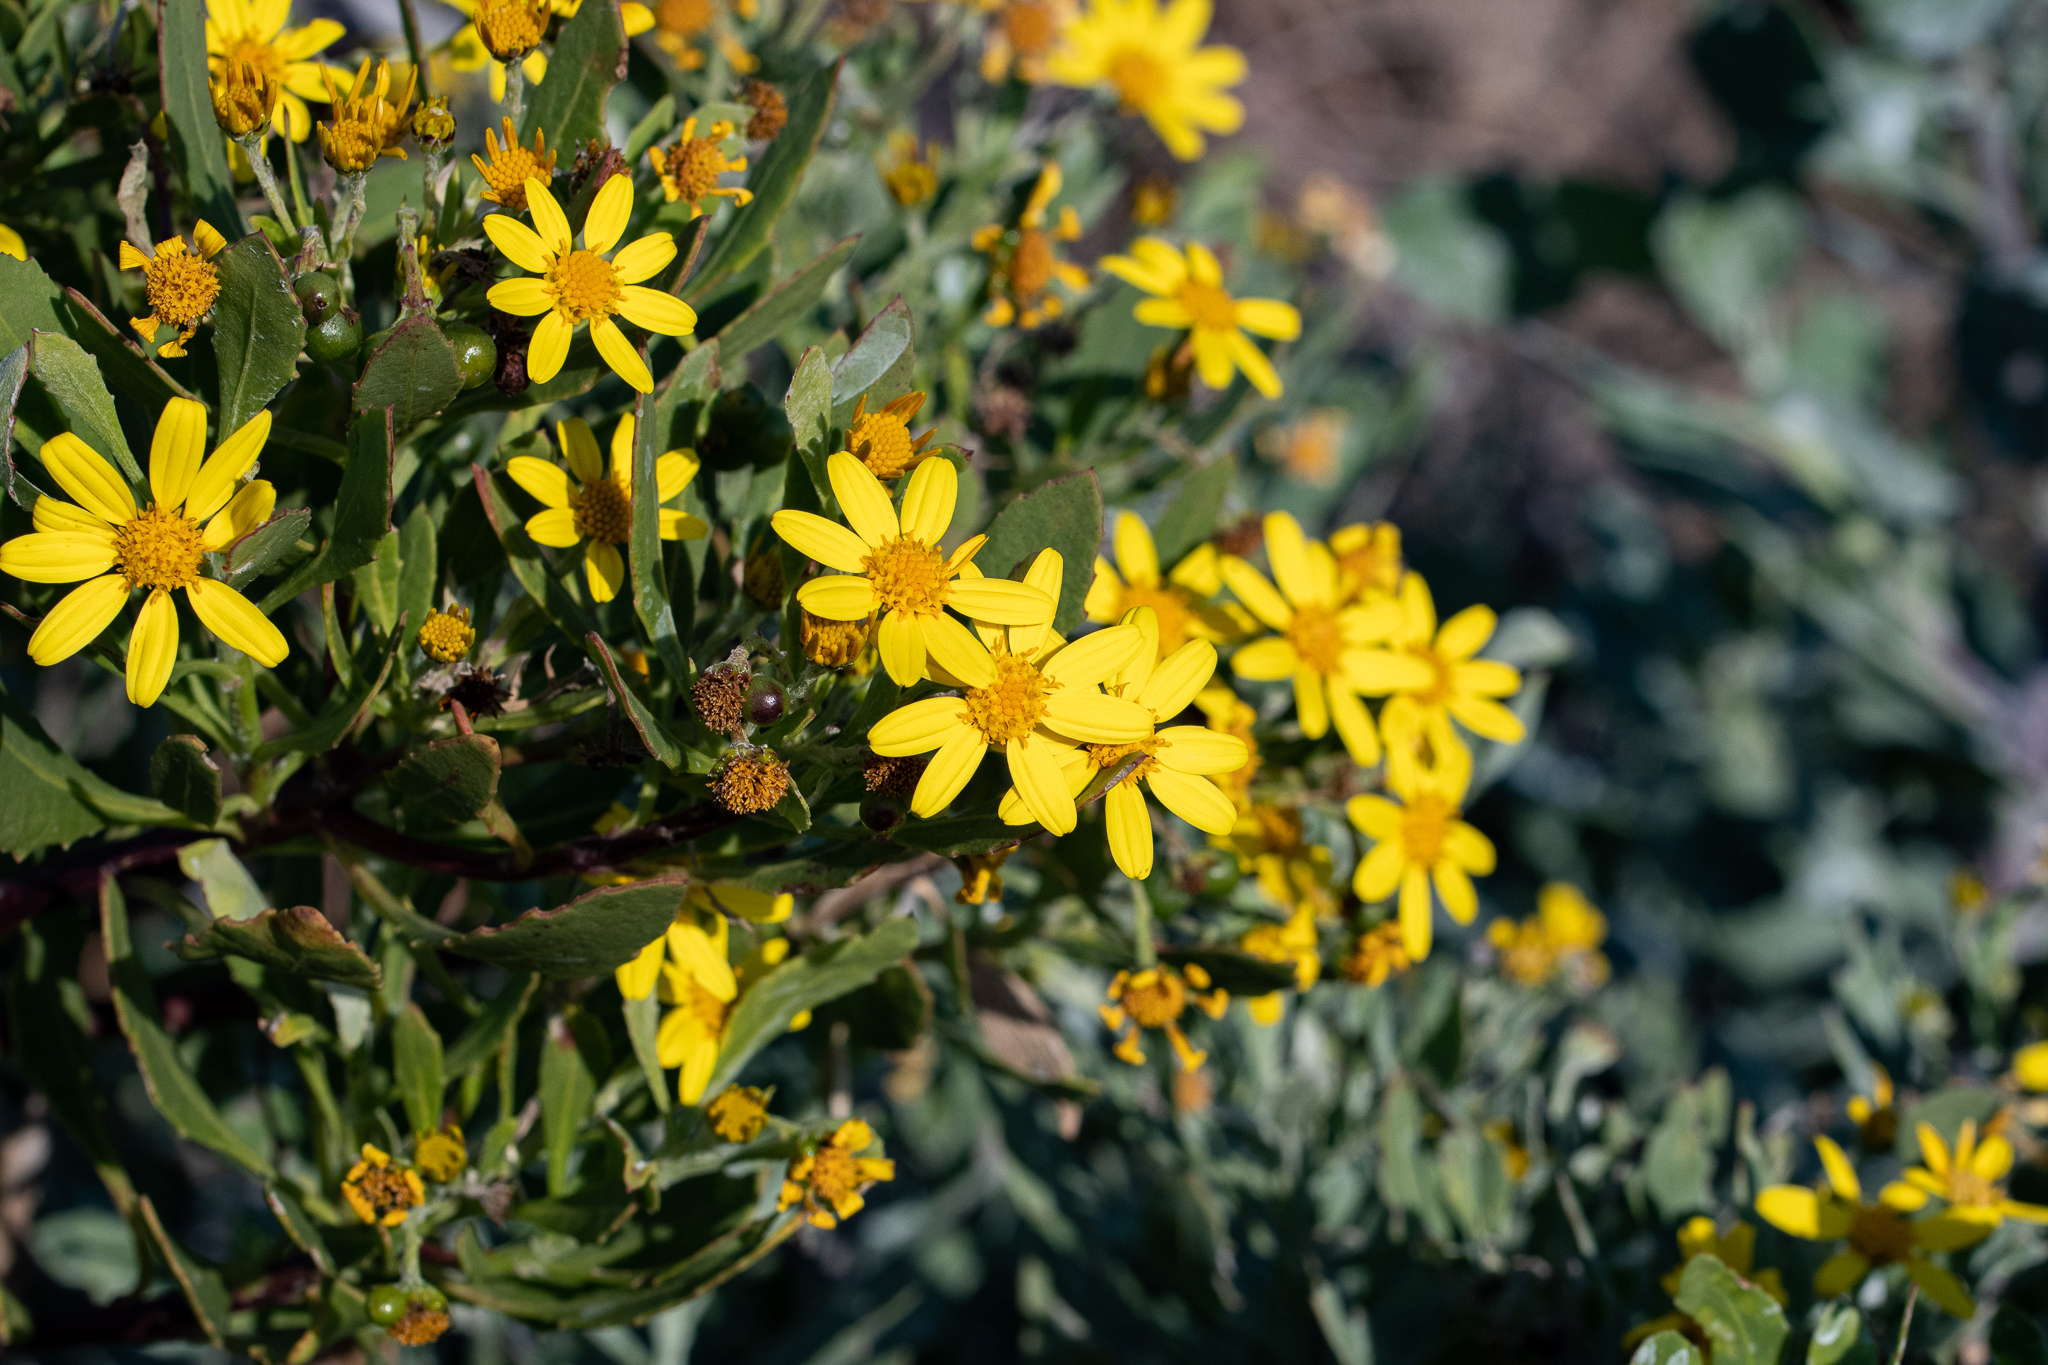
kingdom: Plantae
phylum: Tracheophyta
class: Magnoliopsida
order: Asterales
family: Asteraceae
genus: Osteospermum
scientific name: Osteospermum moniliferum
